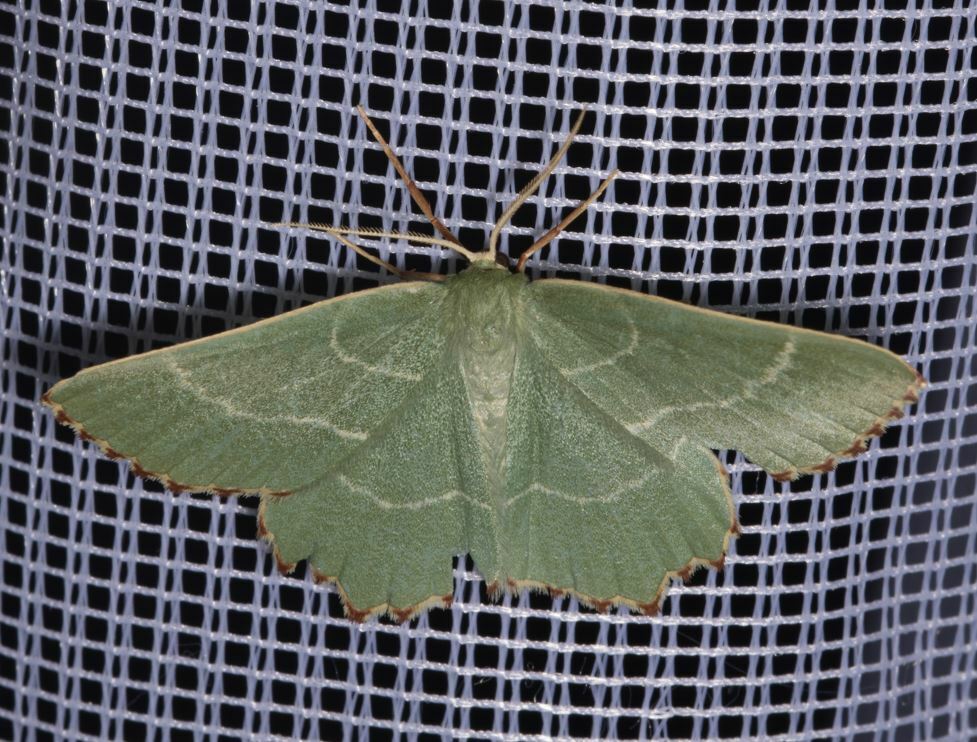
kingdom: Animalia
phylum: Arthropoda
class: Insecta
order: Lepidoptera
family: Geometridae
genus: Thalera
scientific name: Thalera fimbrialis
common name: Sussex emerald
